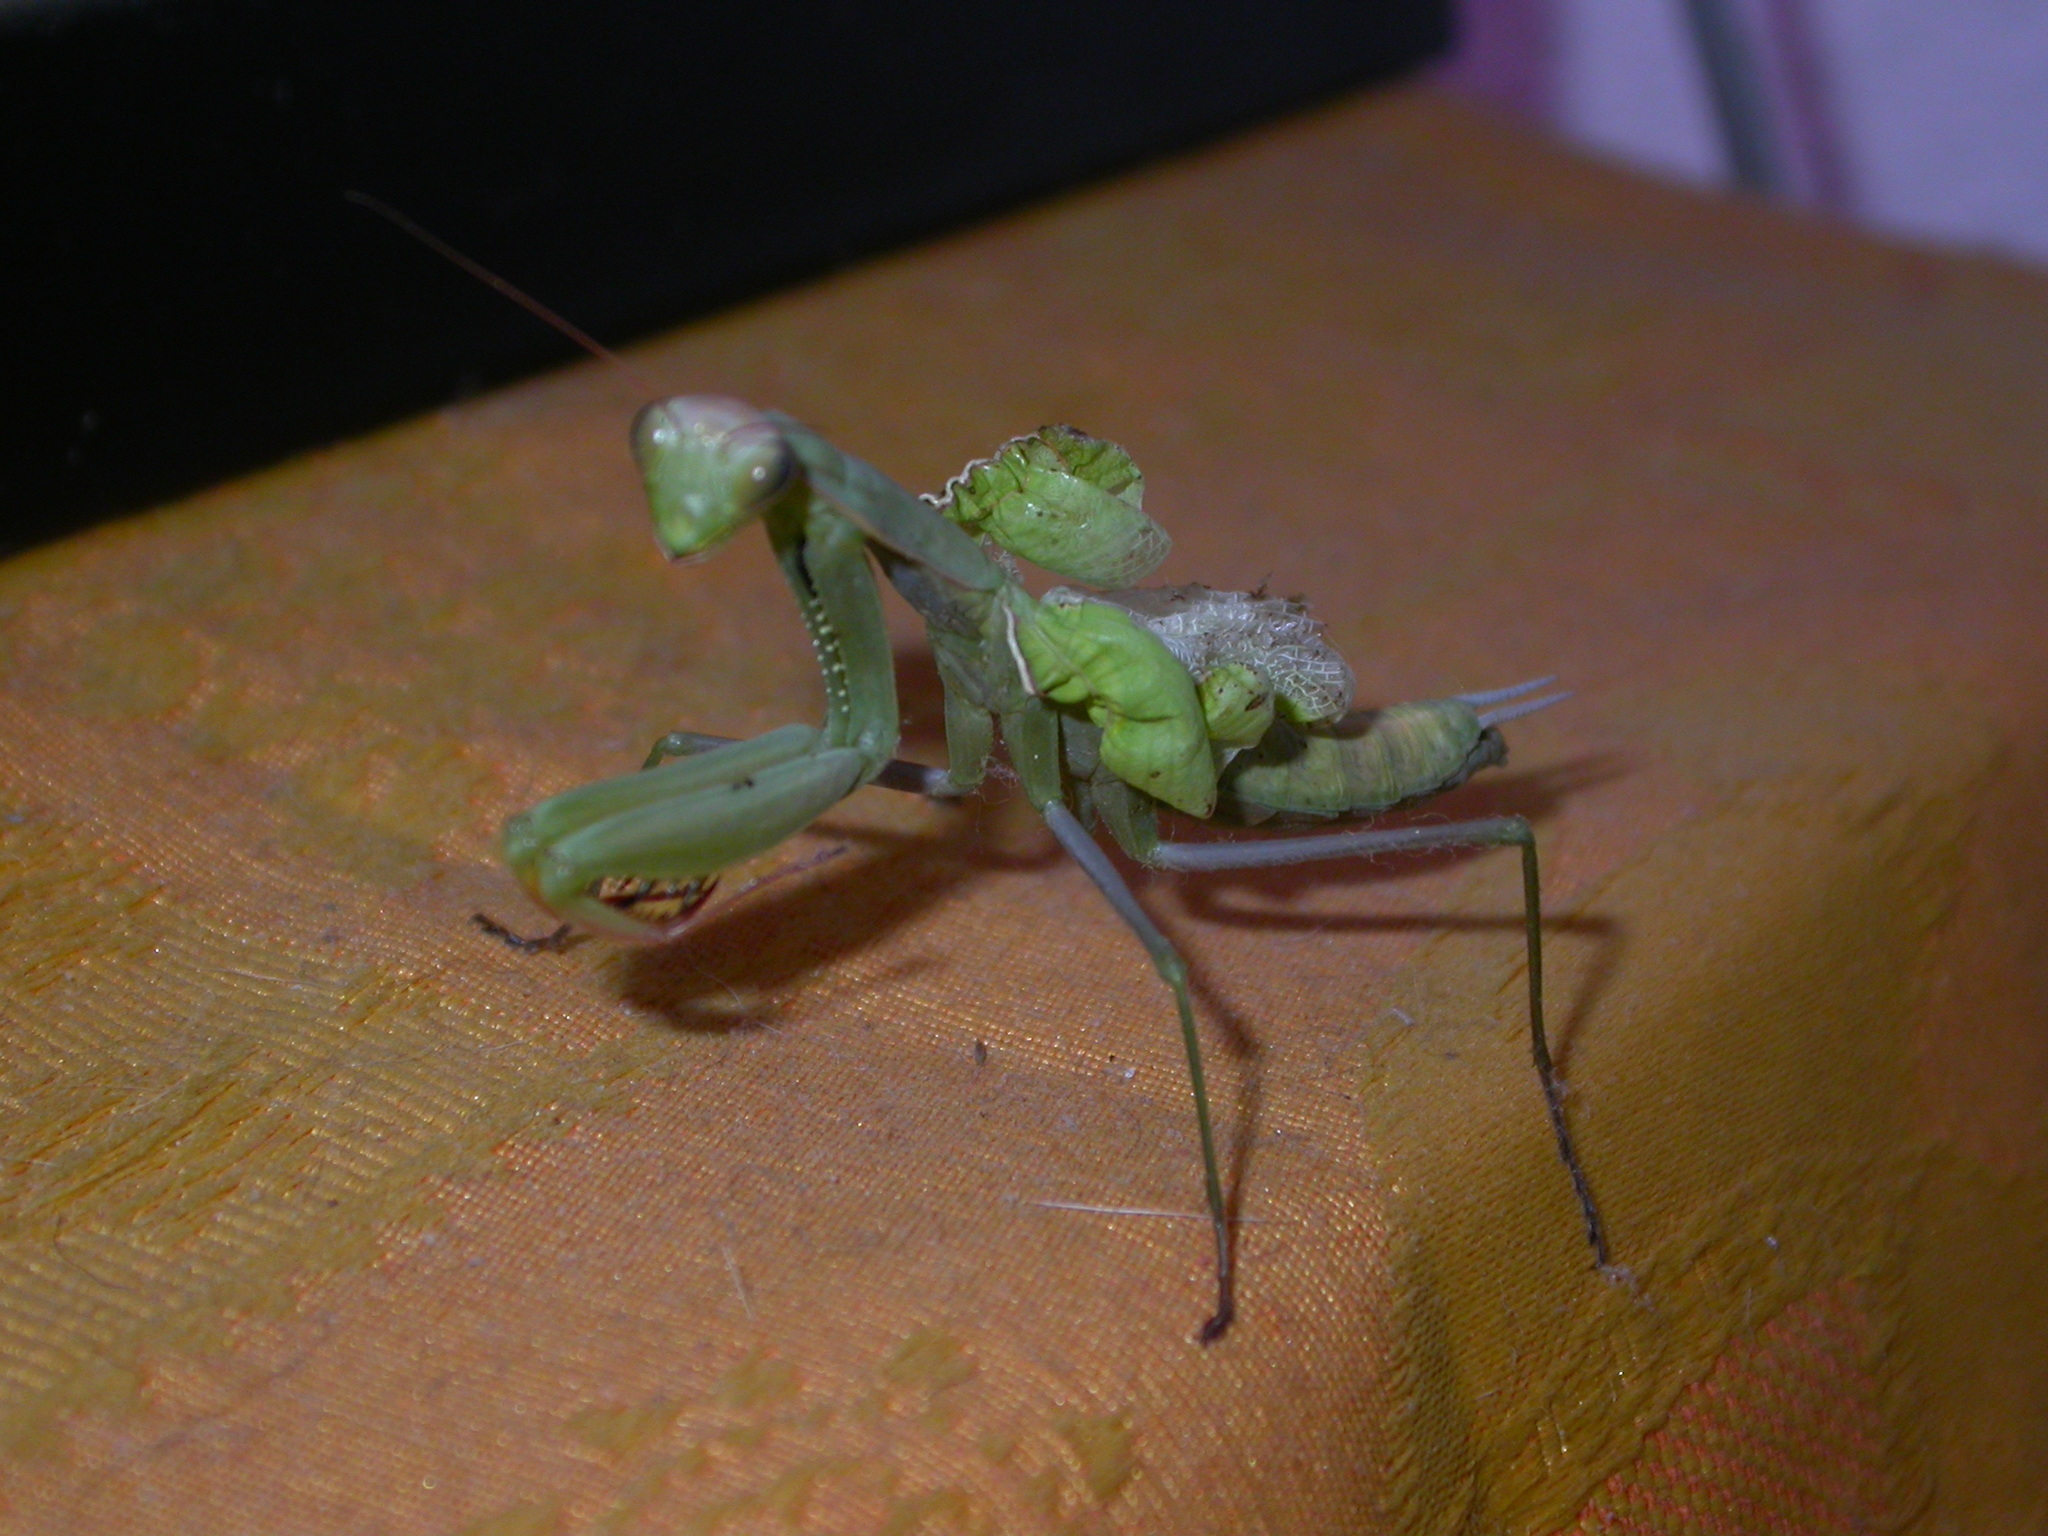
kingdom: Animalia
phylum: Arthropoda
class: Insecta
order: Mantodea
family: Mantidae
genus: Mantis
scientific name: Mantis religiosa
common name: Praying mantis
